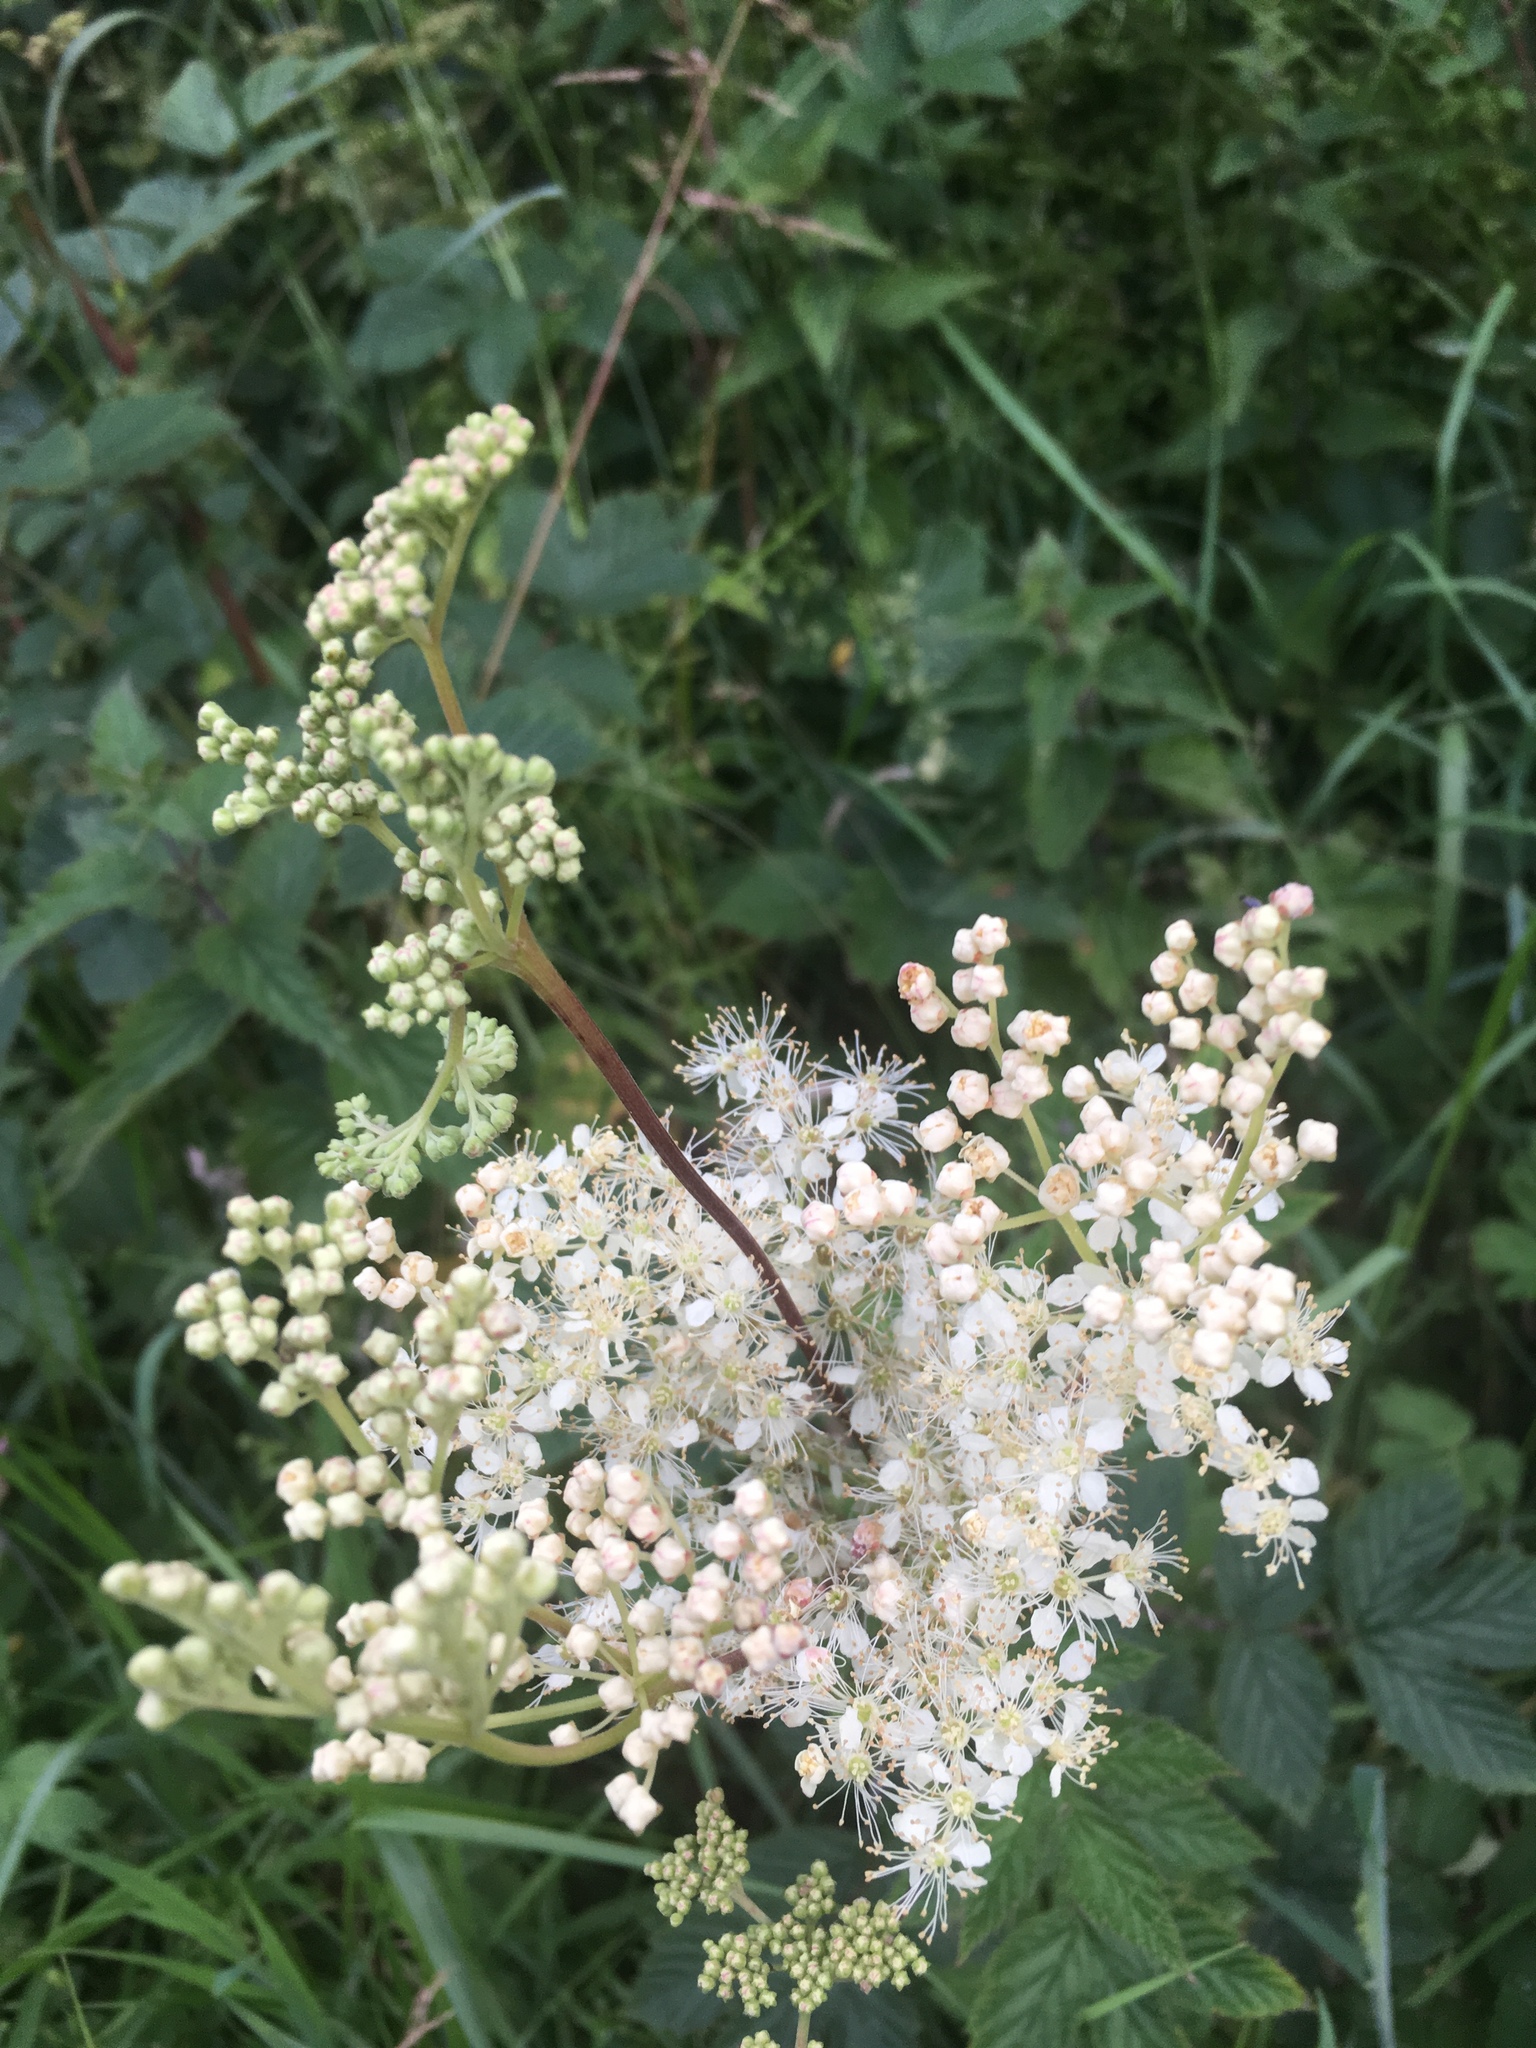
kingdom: Plantae
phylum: Tracheophyta
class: Magnoliopsida
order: Rosales
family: Rosaceae
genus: Filipendula
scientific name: Filipendula ulmaria
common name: Meadowsweet
